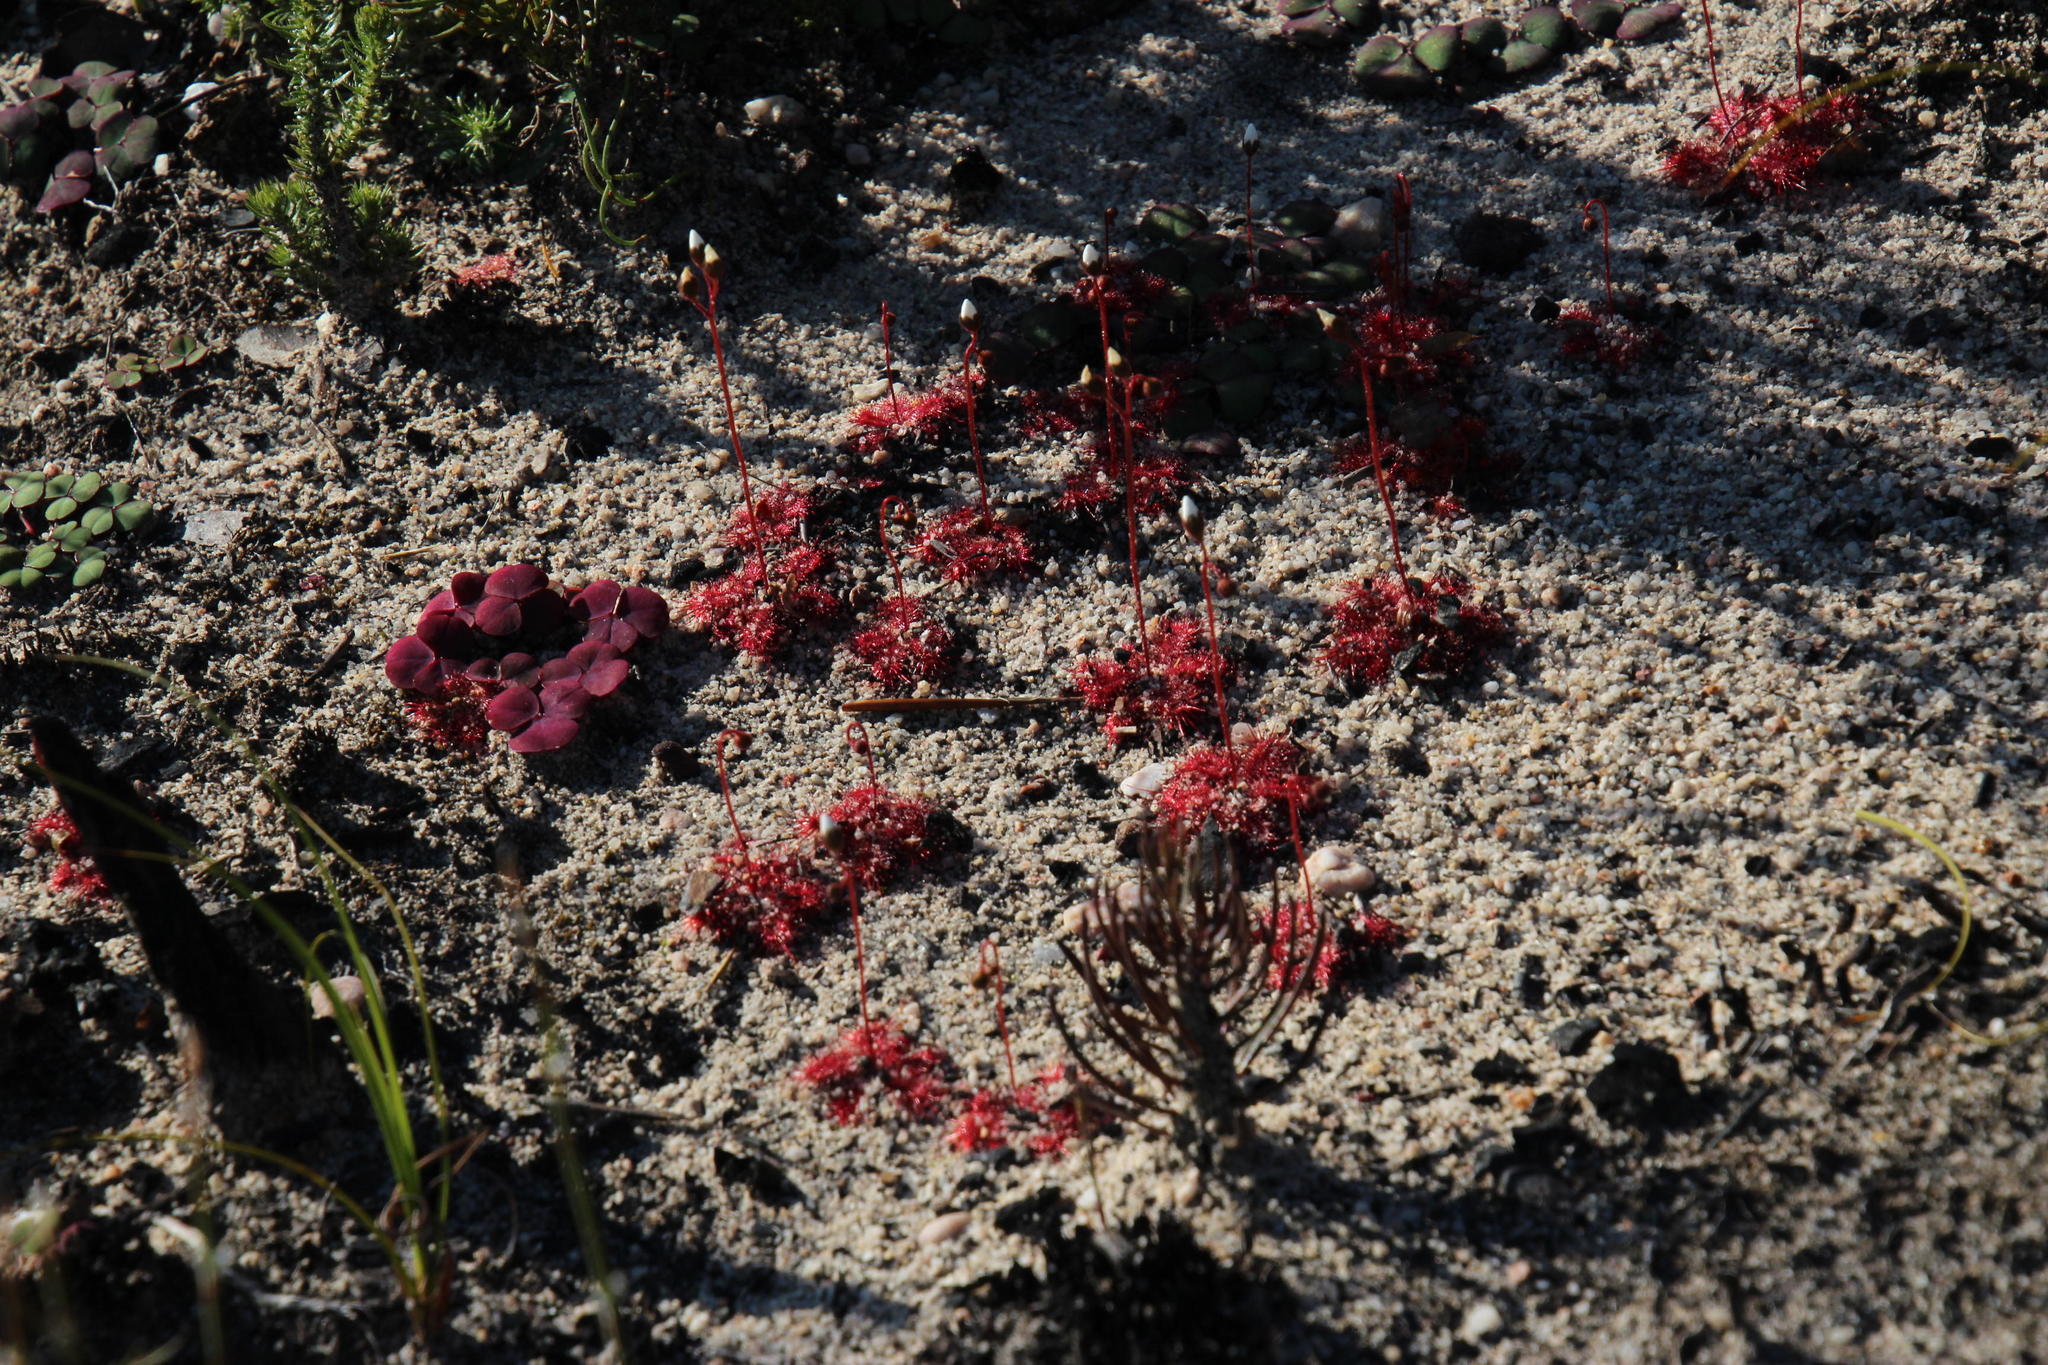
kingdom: Plantae
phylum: Tracheophyta
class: Magnoliopsida
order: Caryophyllales
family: Droseraceae
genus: Drosera
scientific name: Drosera trinervia
